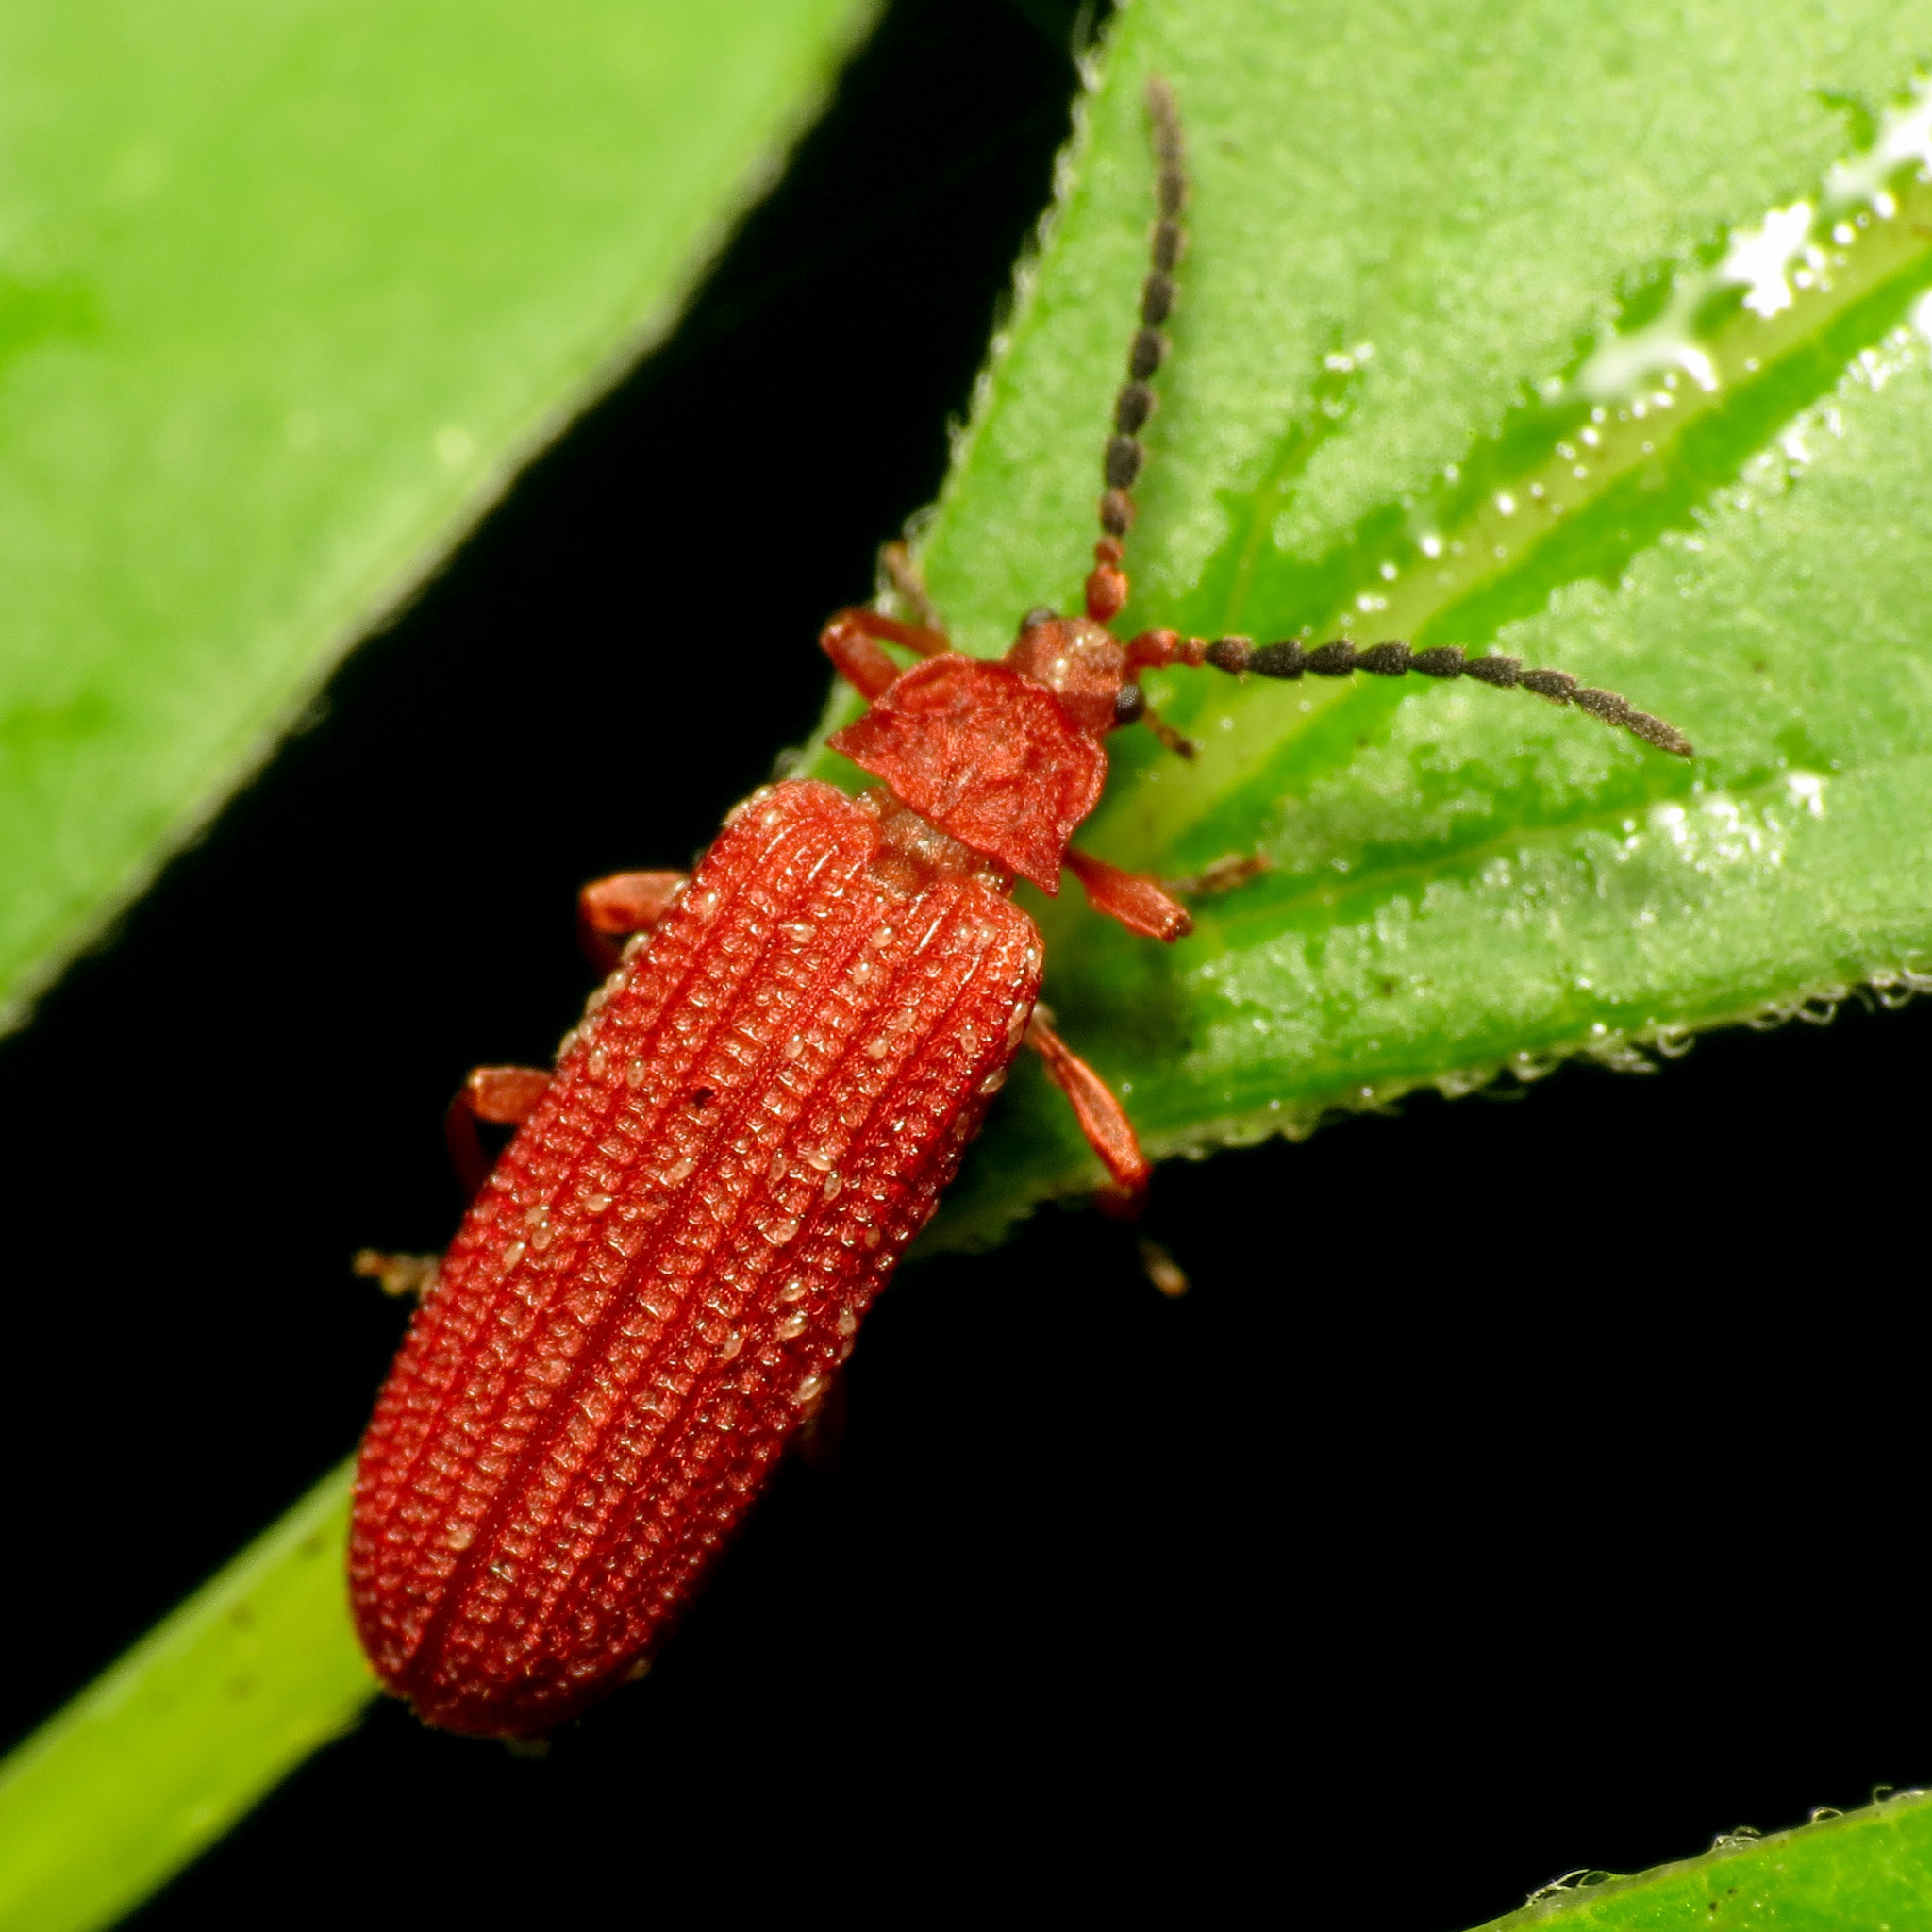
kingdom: Animalia
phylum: Arthropoda
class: Insecta
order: Coleoptera
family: Lycidae
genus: Punicealis
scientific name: Punicealis
